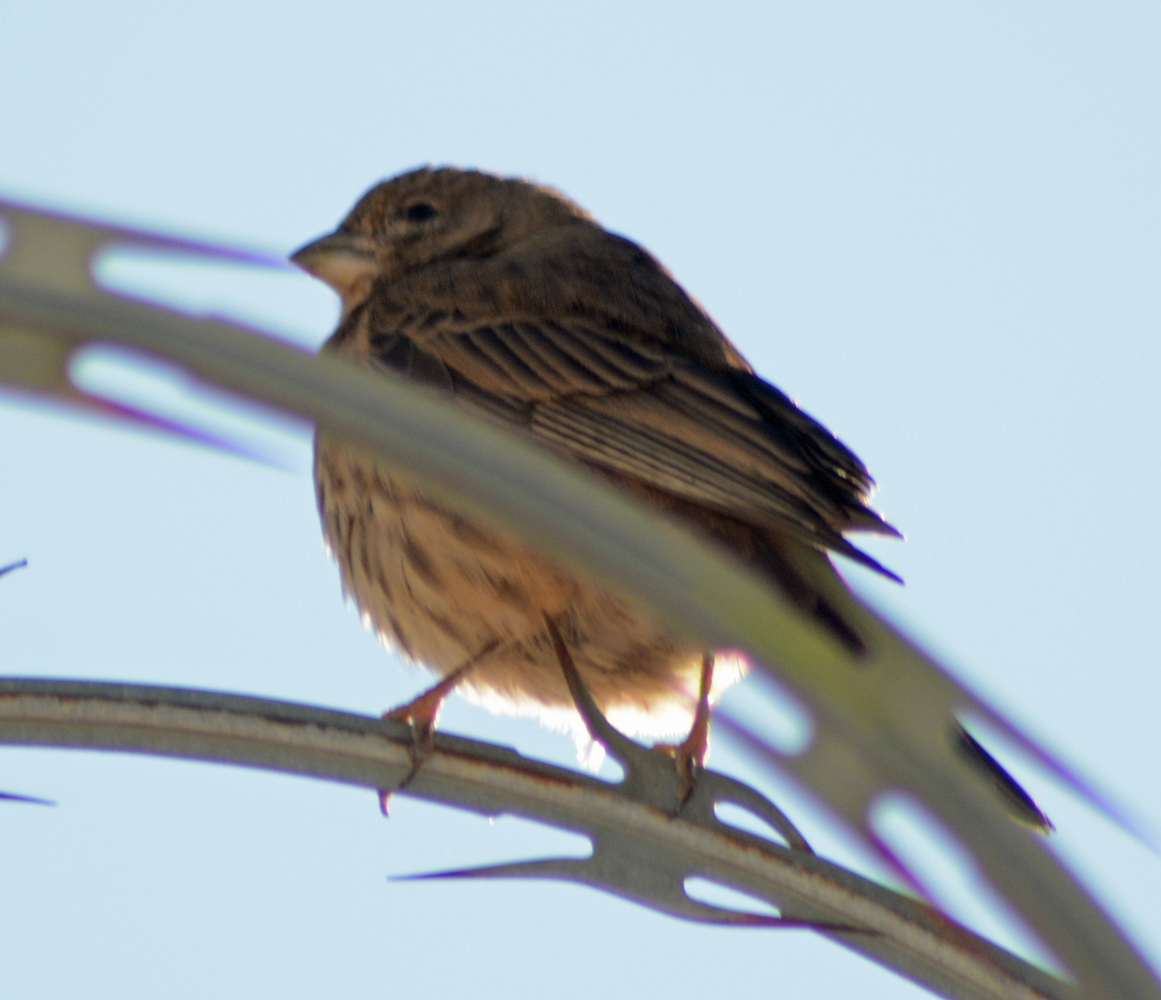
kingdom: Animalia
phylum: Chordata
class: Aves
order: Passeriformes
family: Fringillidae
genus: Haemorhous
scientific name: Haemorhous mexicanus
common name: House finch
